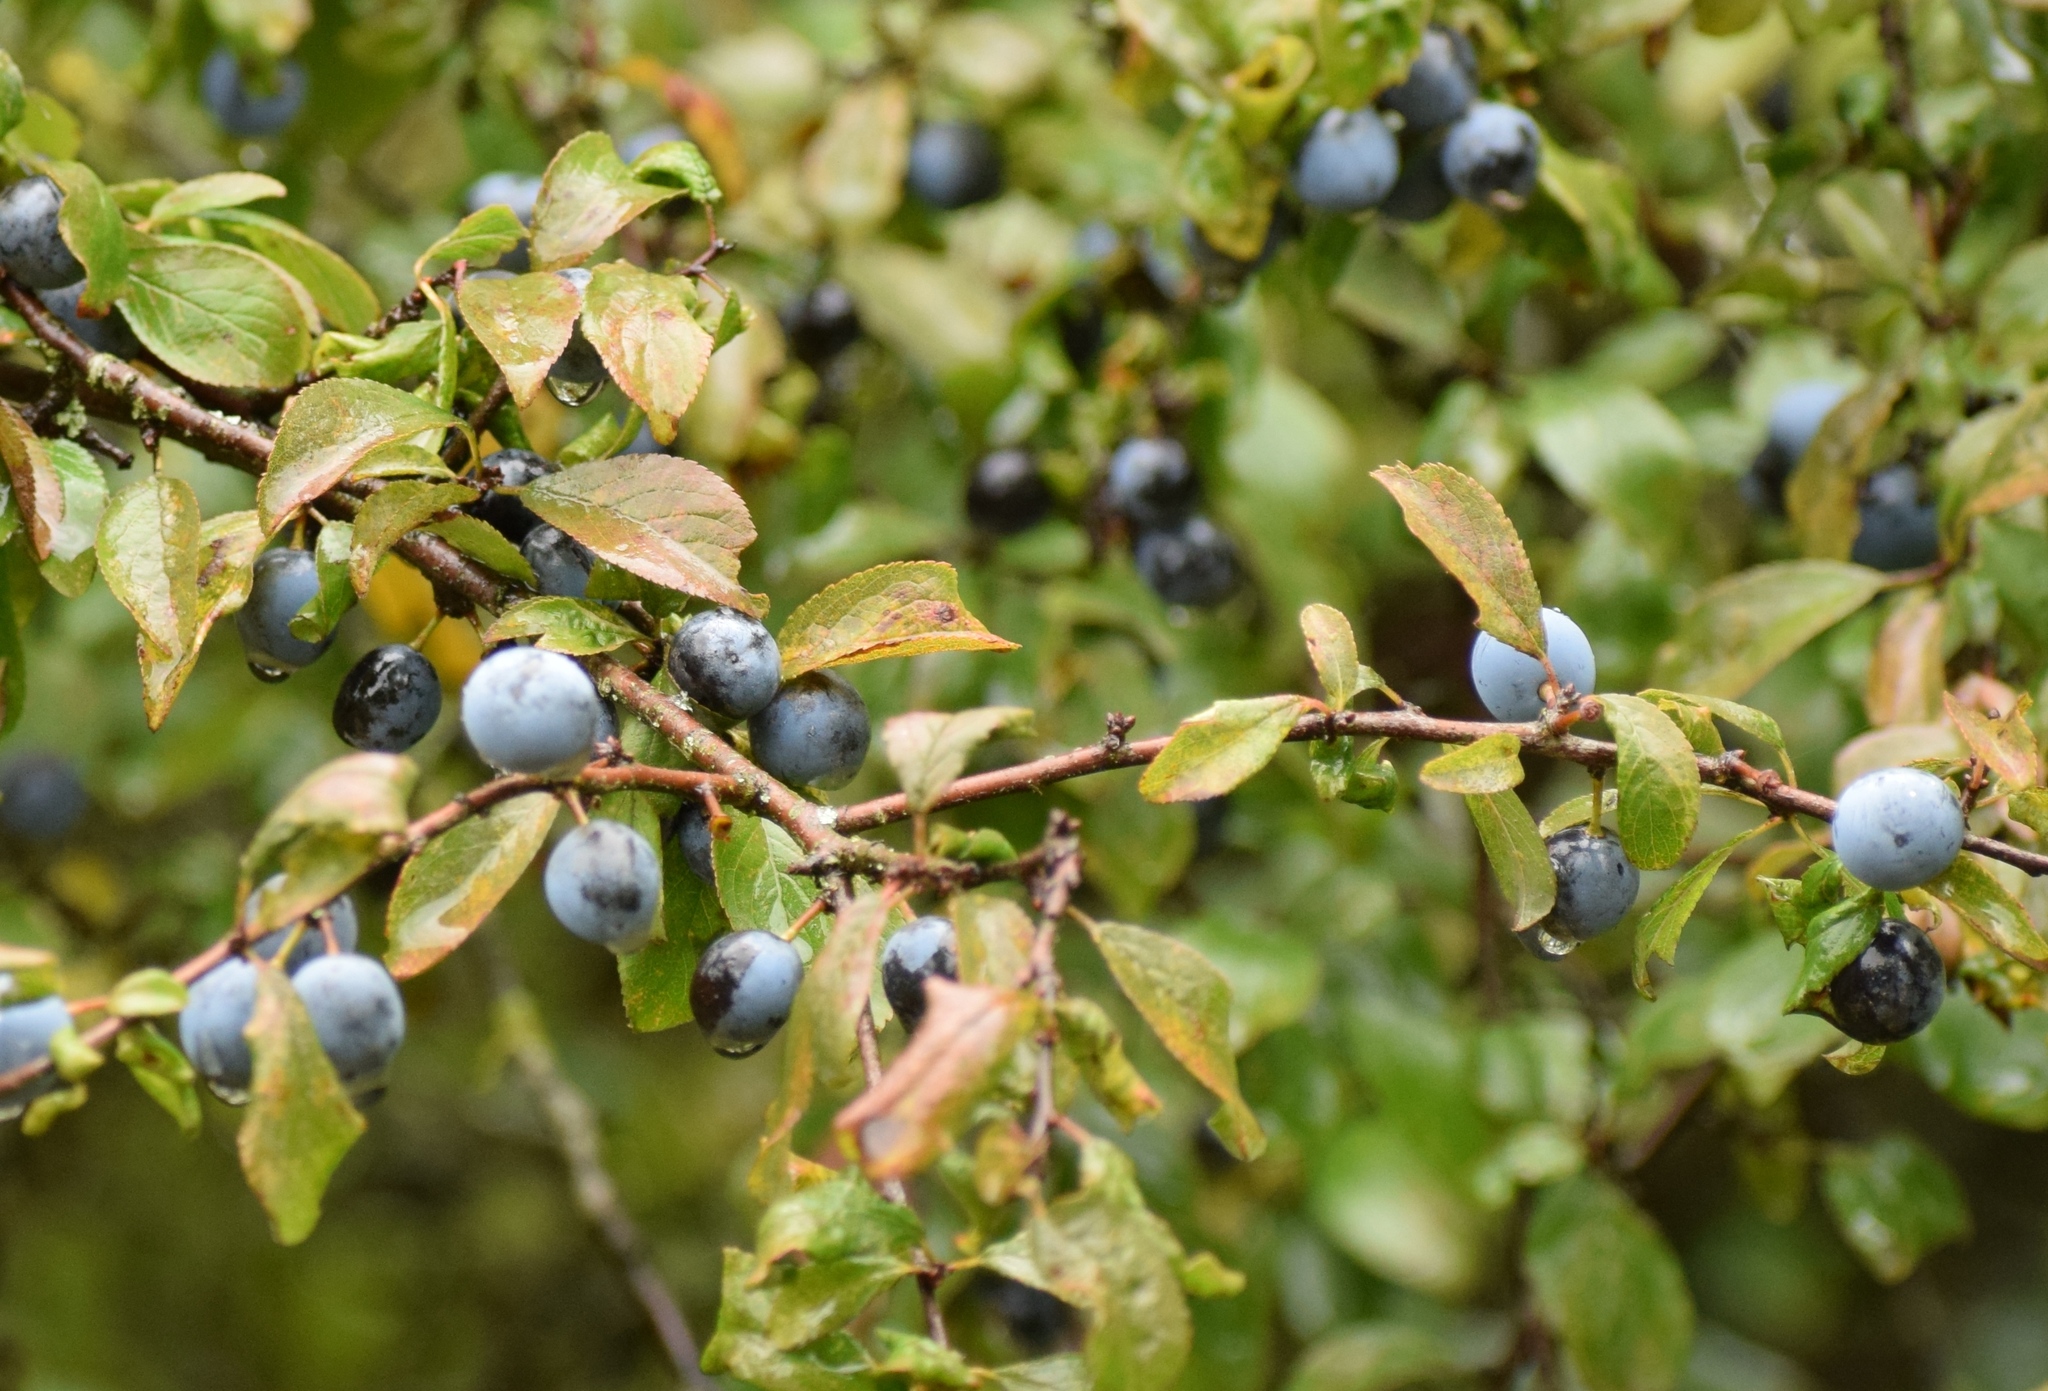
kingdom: Plantae
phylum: Tracheophyta
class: Magnoliopsida
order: Rosales
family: Rosaceae
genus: Prunus
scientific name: Prunus spinosa
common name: Blackthorn
